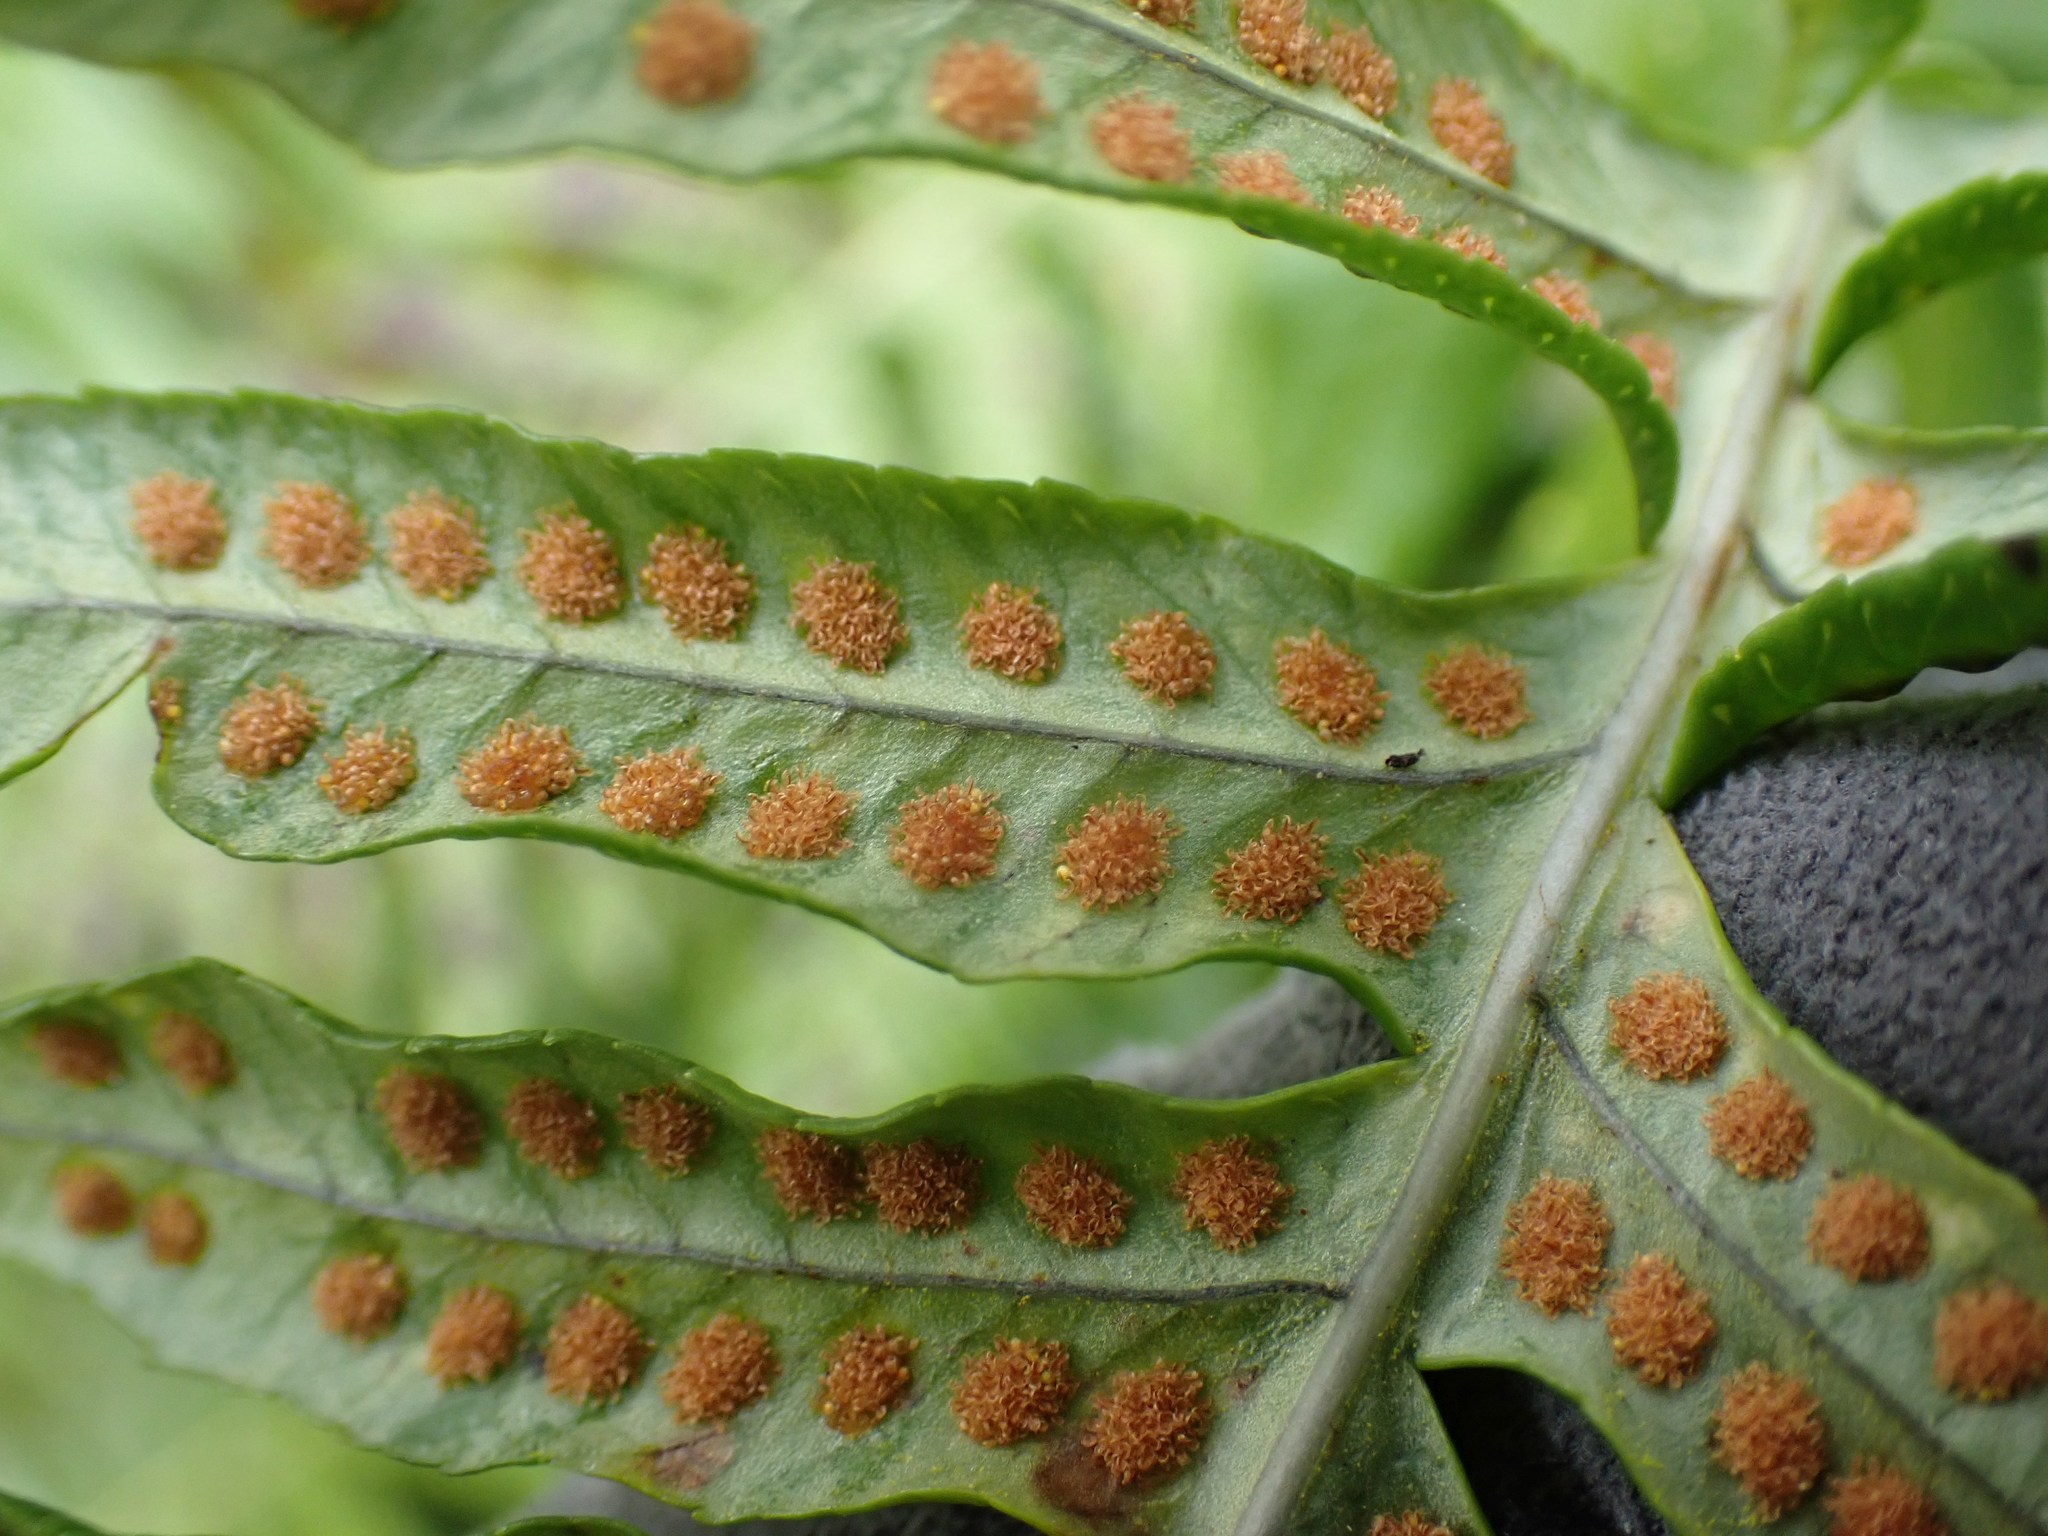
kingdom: Plantae
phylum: Tracheophyta
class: Polypodiopsida
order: Polypodiales
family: Polypodiaceae
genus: Polypodium
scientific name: Polypodium glycyrrhiza
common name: Licorice fern
